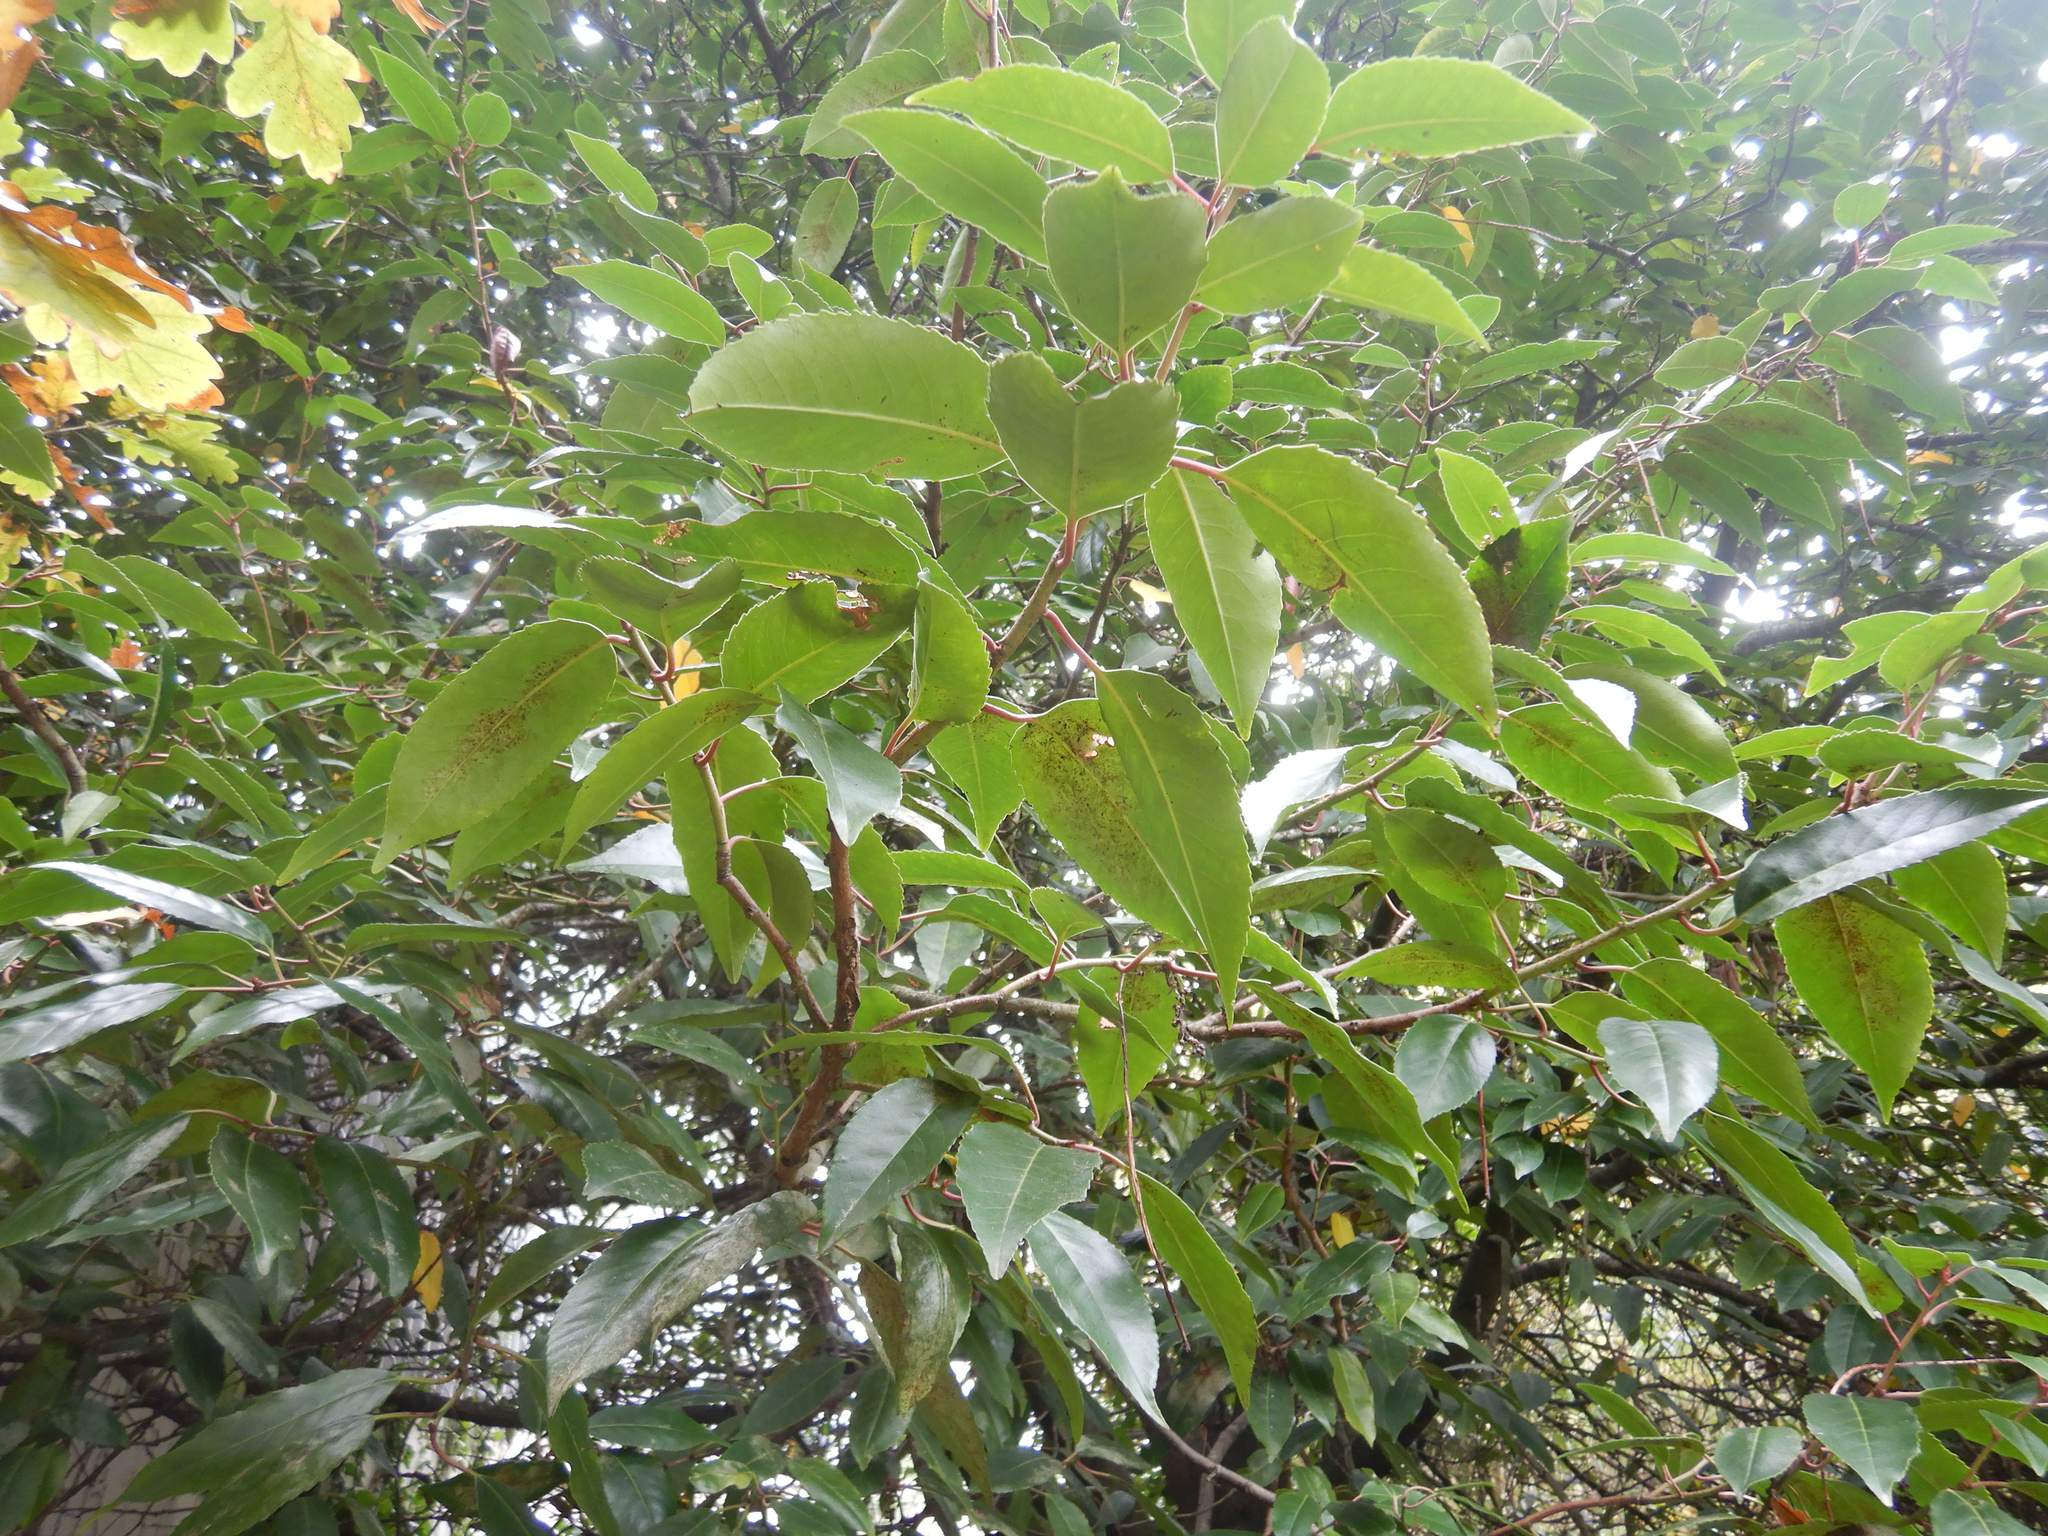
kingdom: Plantae
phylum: Tracheophyta
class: Magnoliopsida
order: Rosales
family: Rosaceae
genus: Prunus
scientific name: Prunus lusitanica
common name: Portugal laurel
